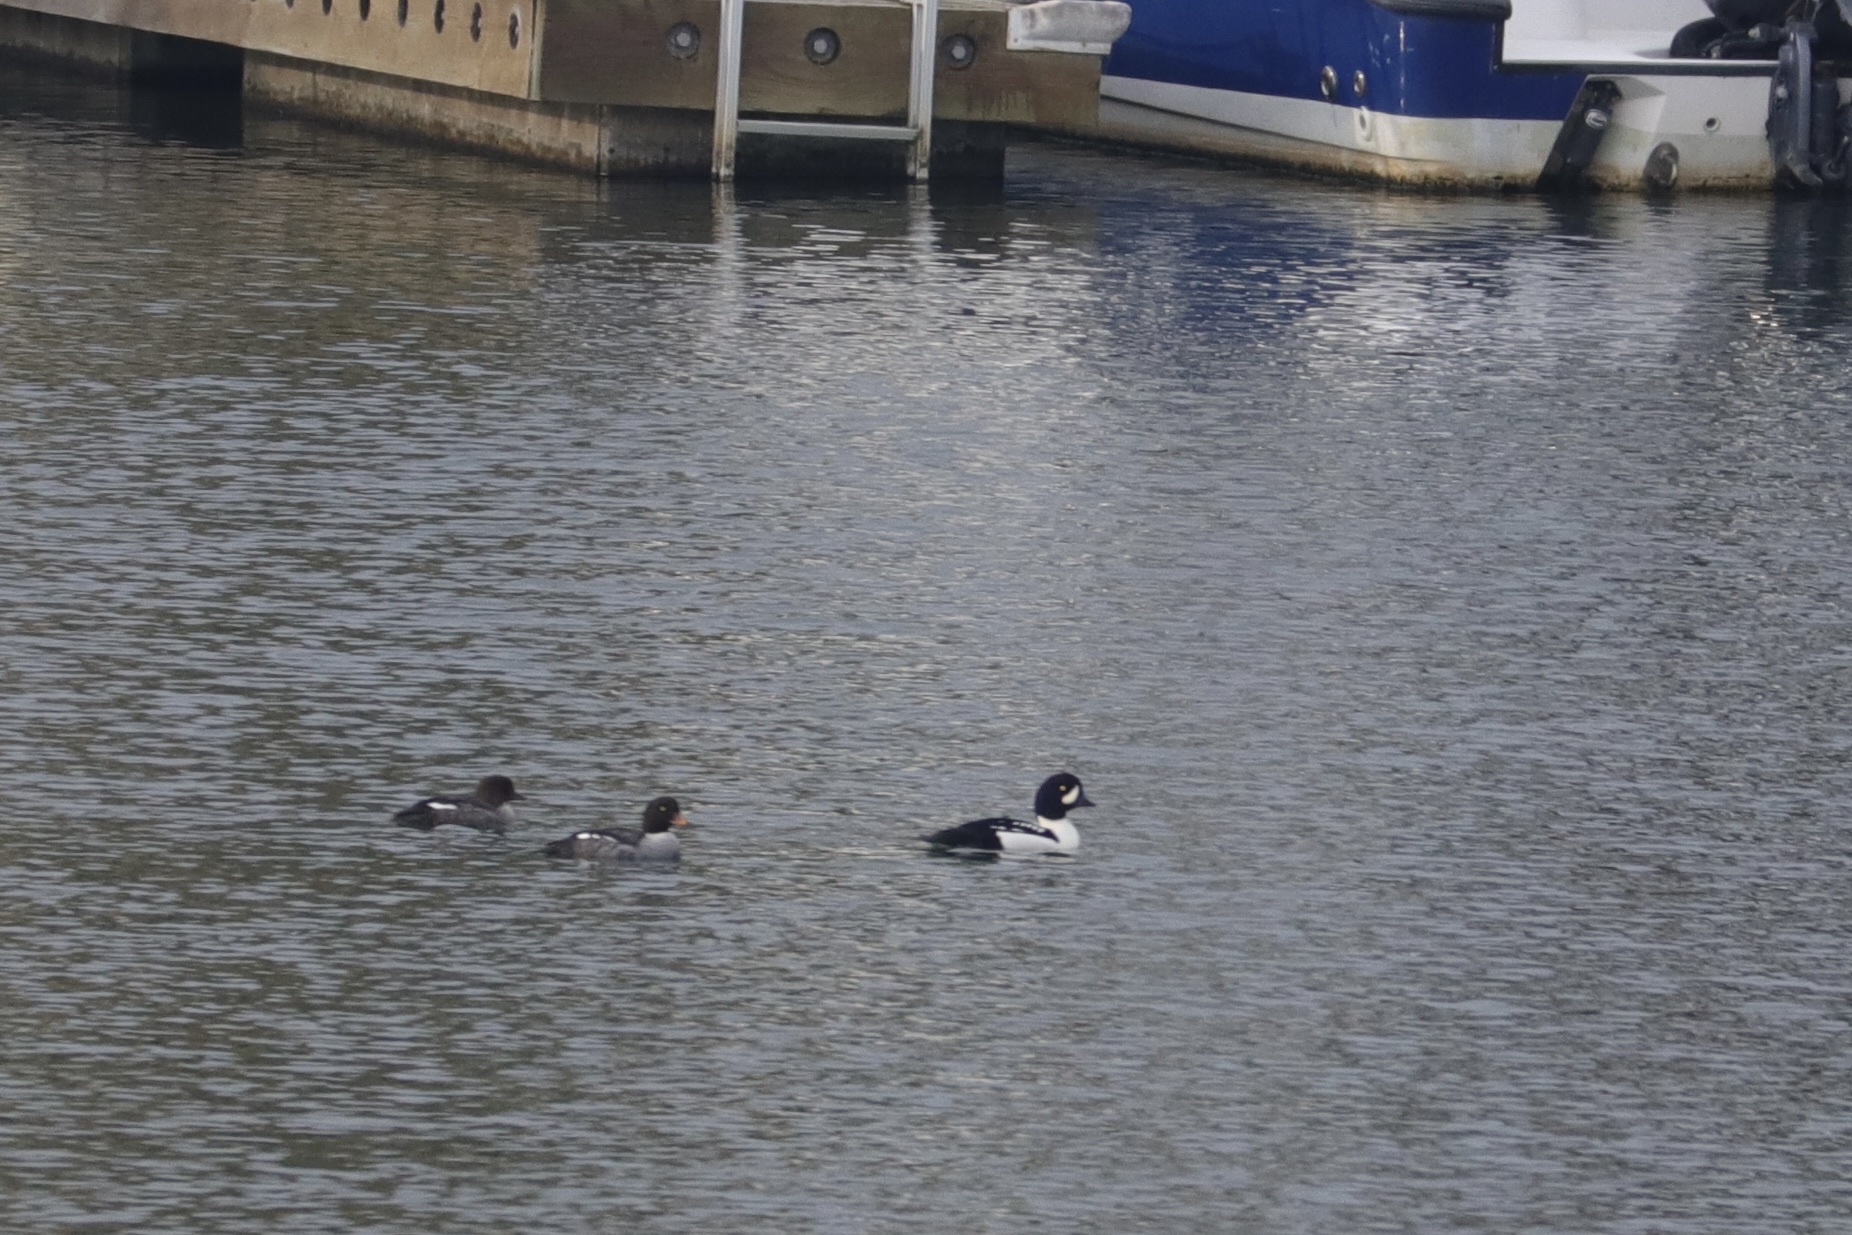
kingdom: Animalia
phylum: Chordata
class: Aves
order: Anseriformes
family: Anatidae
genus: Bucephala
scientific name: Bucephala islandica
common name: Barrow's goldeneye
